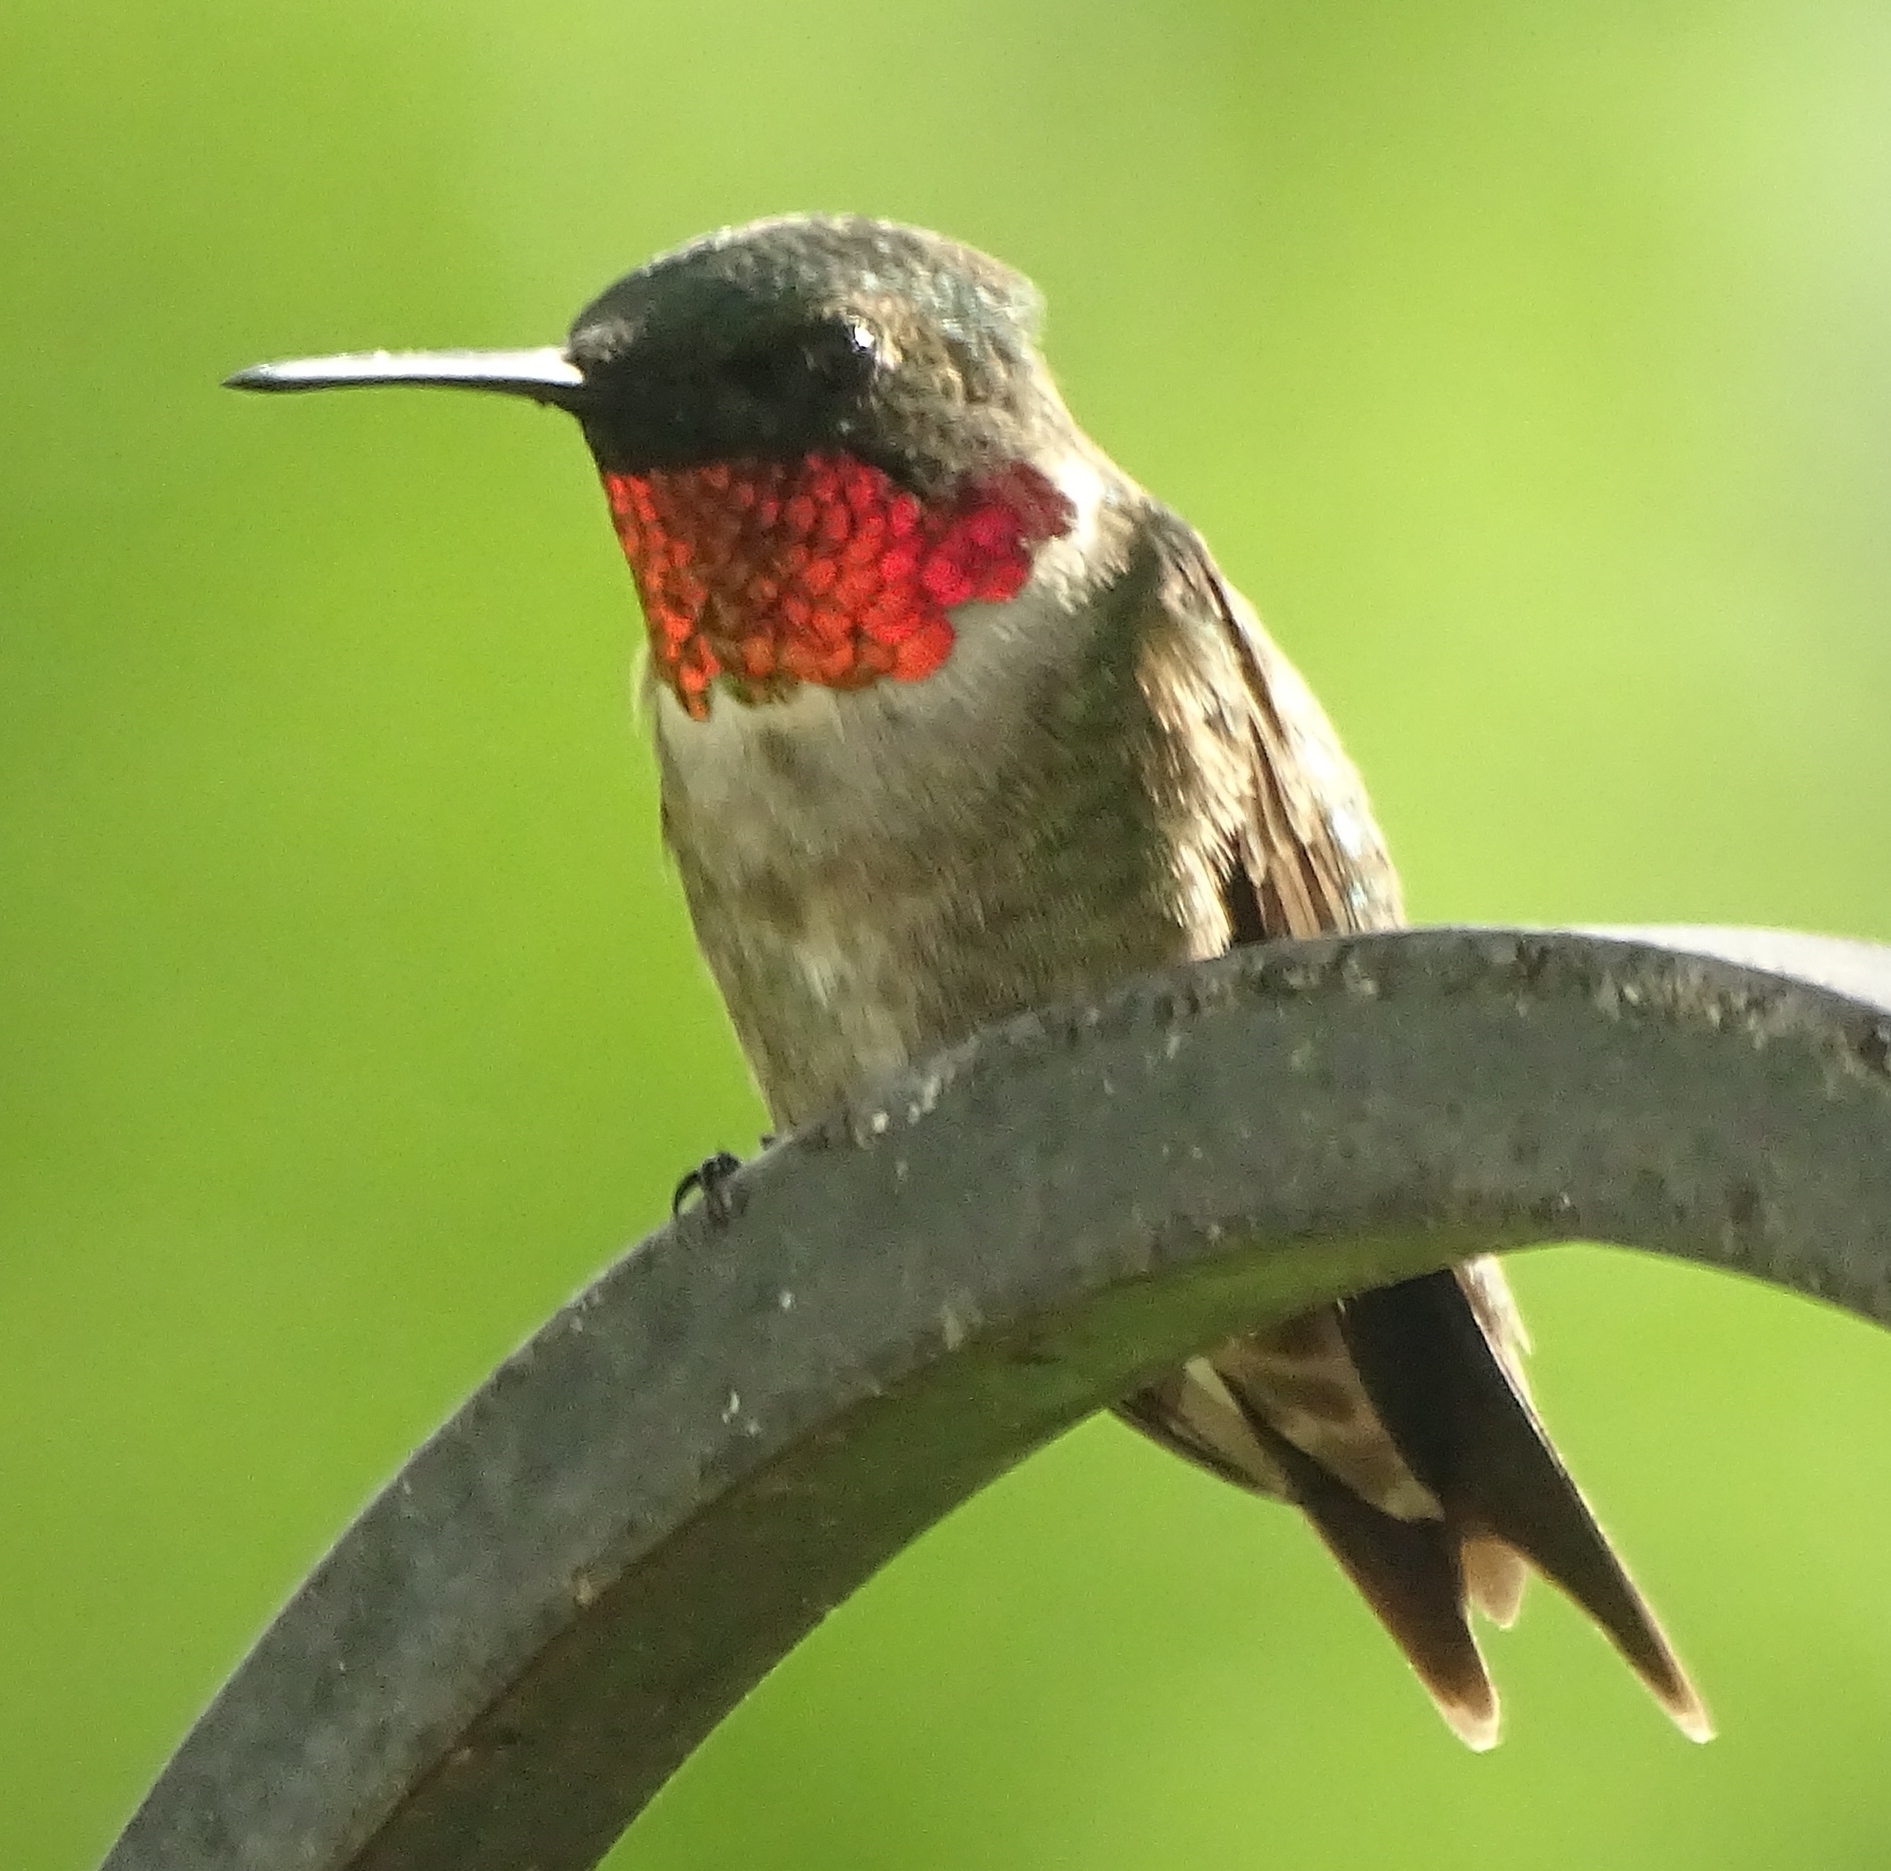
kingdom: Animalia
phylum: Chordata
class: Aves
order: Apodiformes
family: Trochilidae
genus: Archilochus
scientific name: Archilochus colubris
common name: Ruby-throated hummingbird
